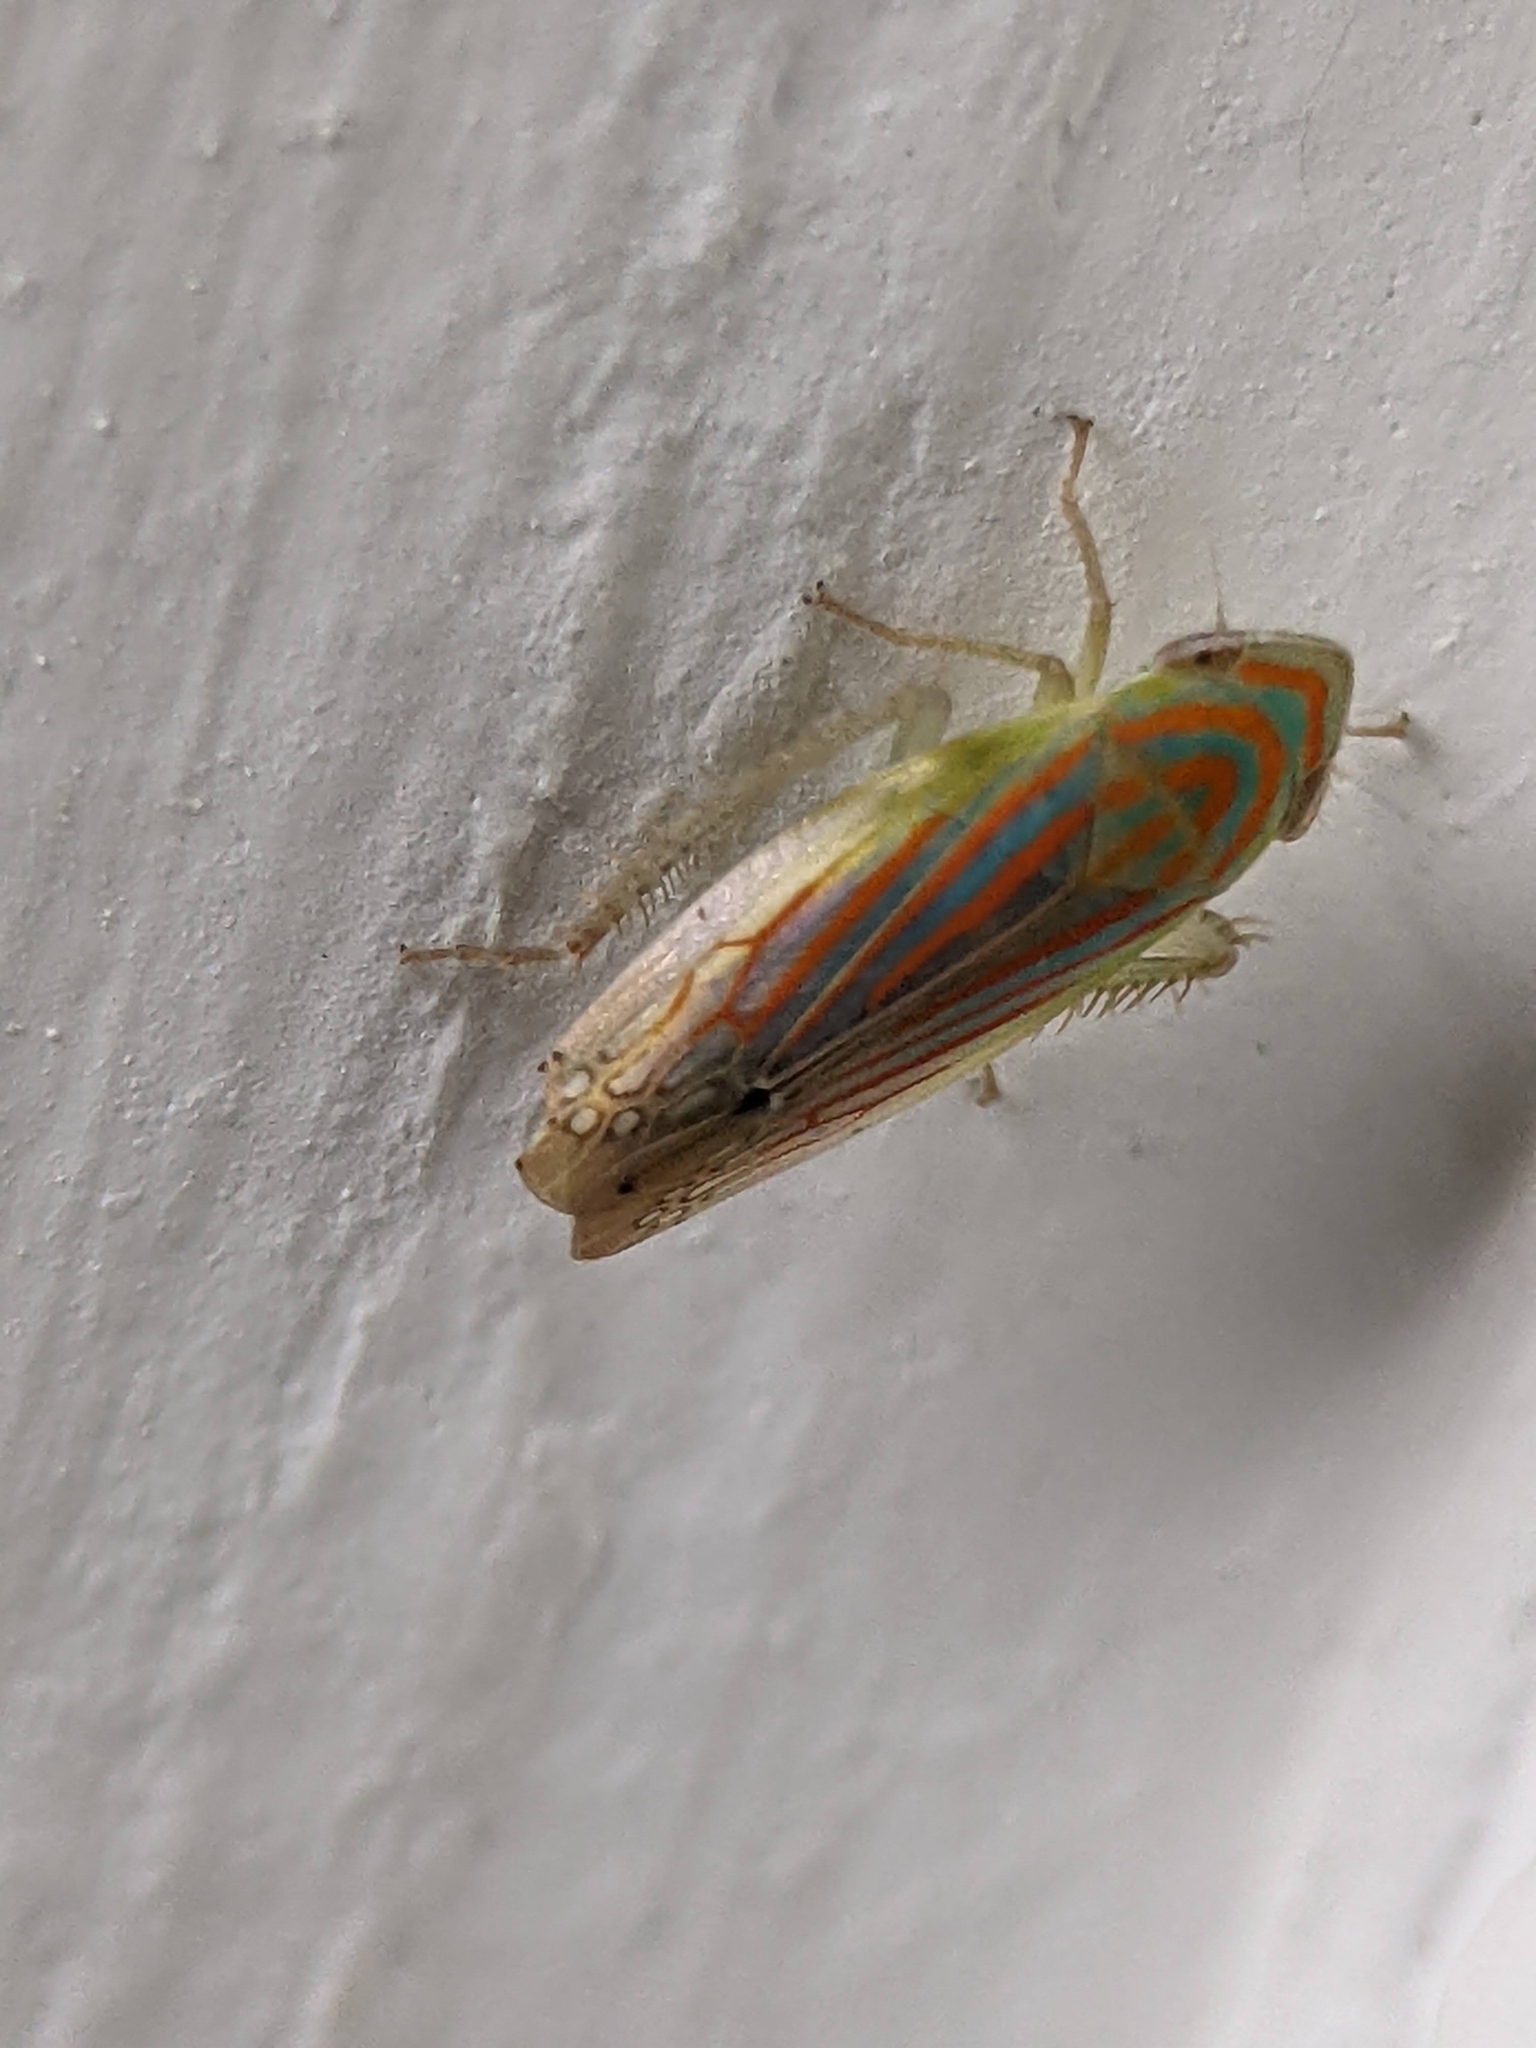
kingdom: Animalia
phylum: Arthropoda
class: Insecta
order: Hemiptera
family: Cicadellidae
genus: Linnavuoriella
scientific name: Linnavuoriella arcuata
